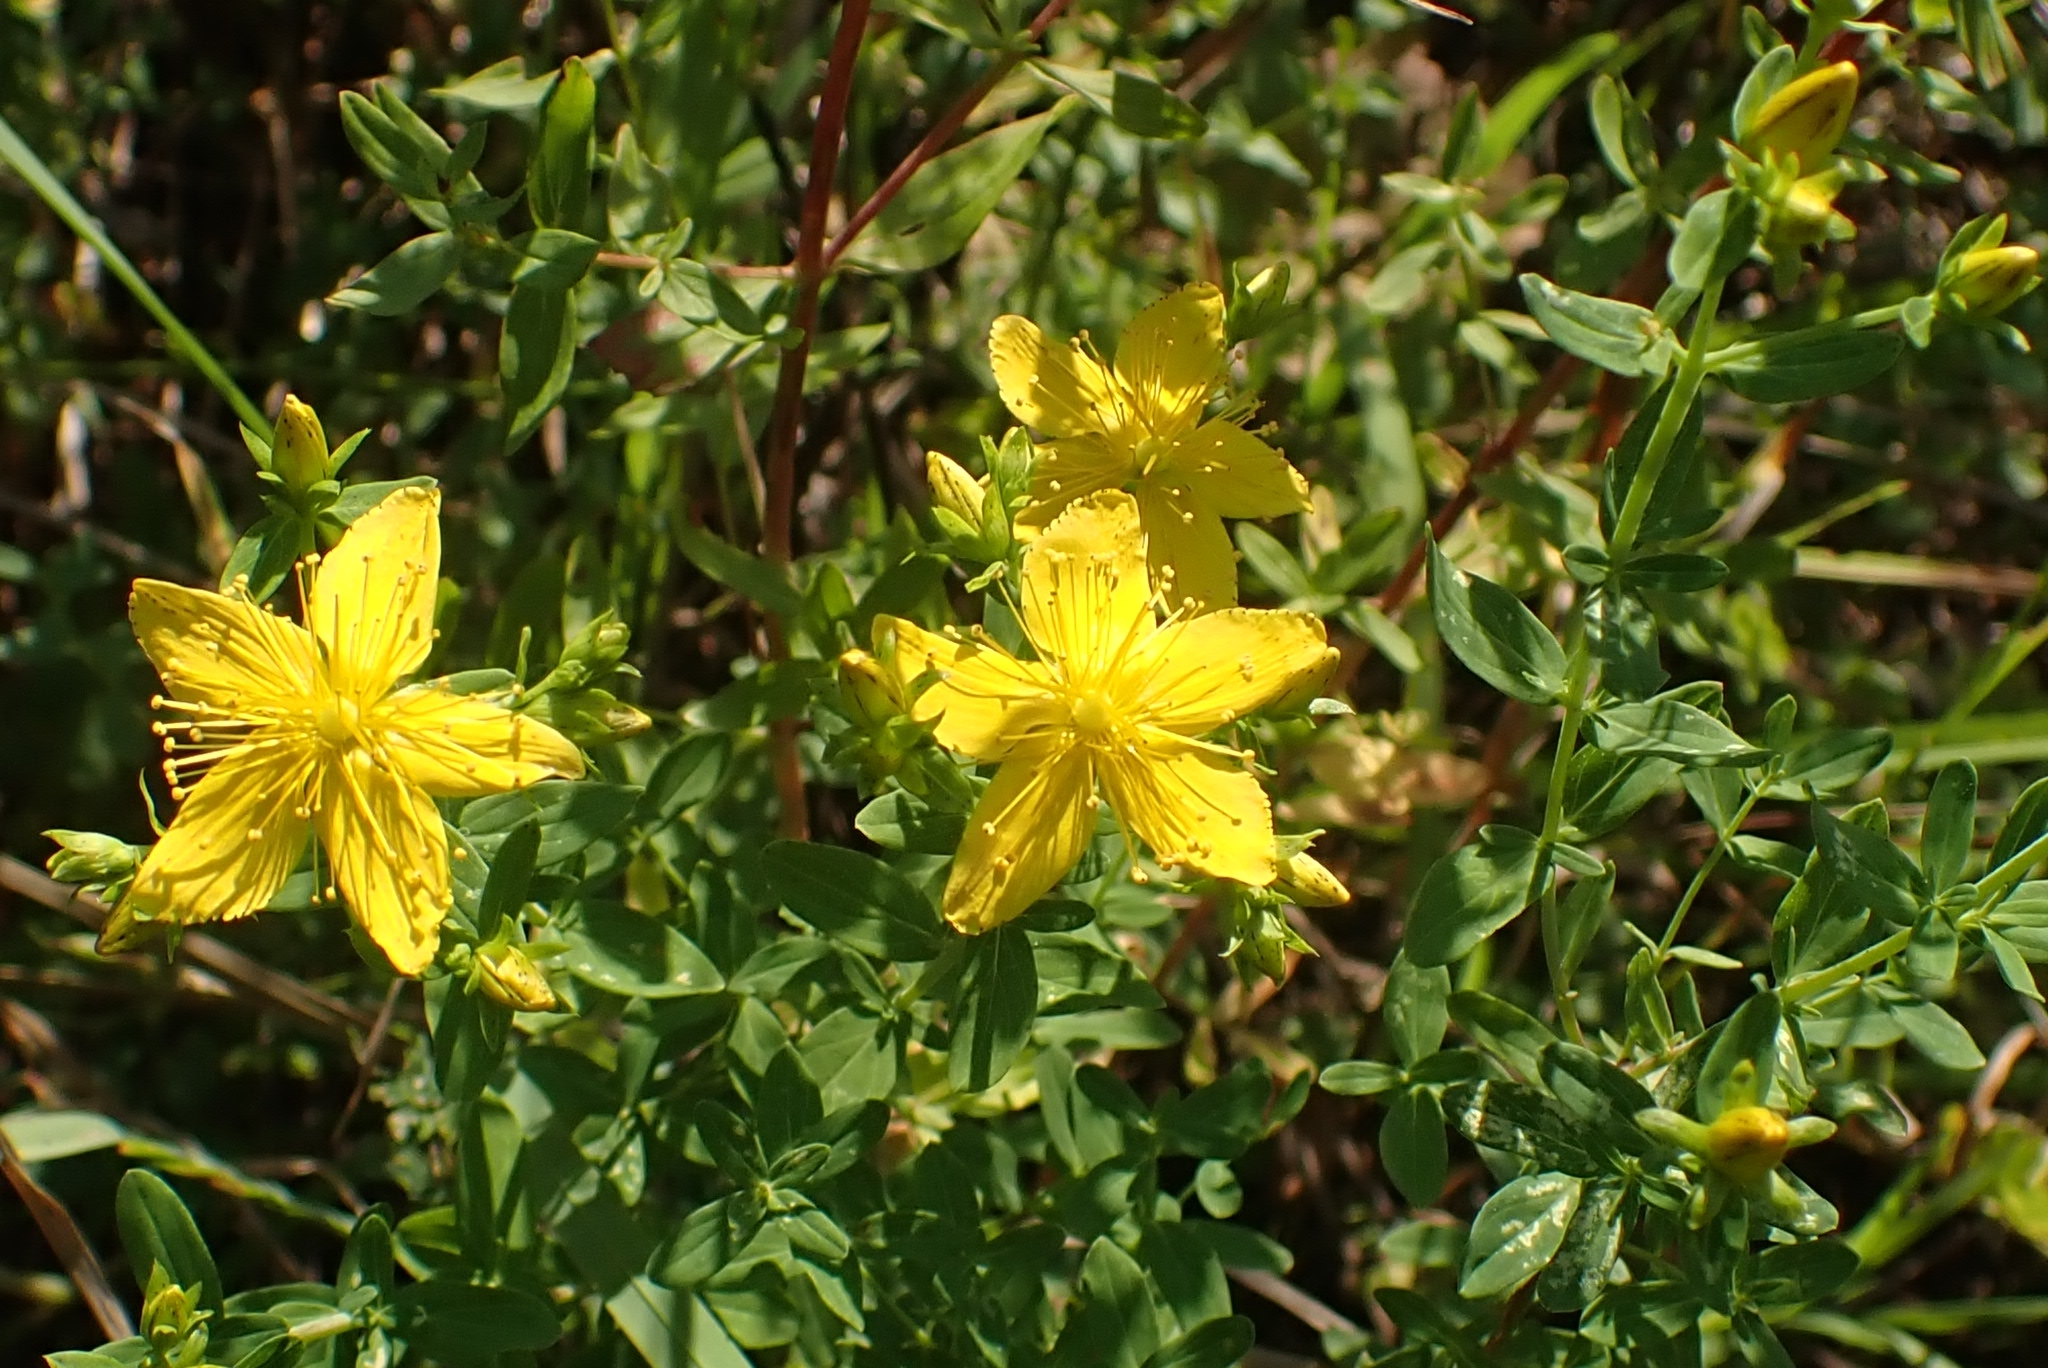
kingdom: Plantae
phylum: Tracheophyta
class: Magnoliopsida
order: Malpighiales
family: Hypericaceae
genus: Hypericum
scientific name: Hypericum perforatum
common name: Common st. johnswort
